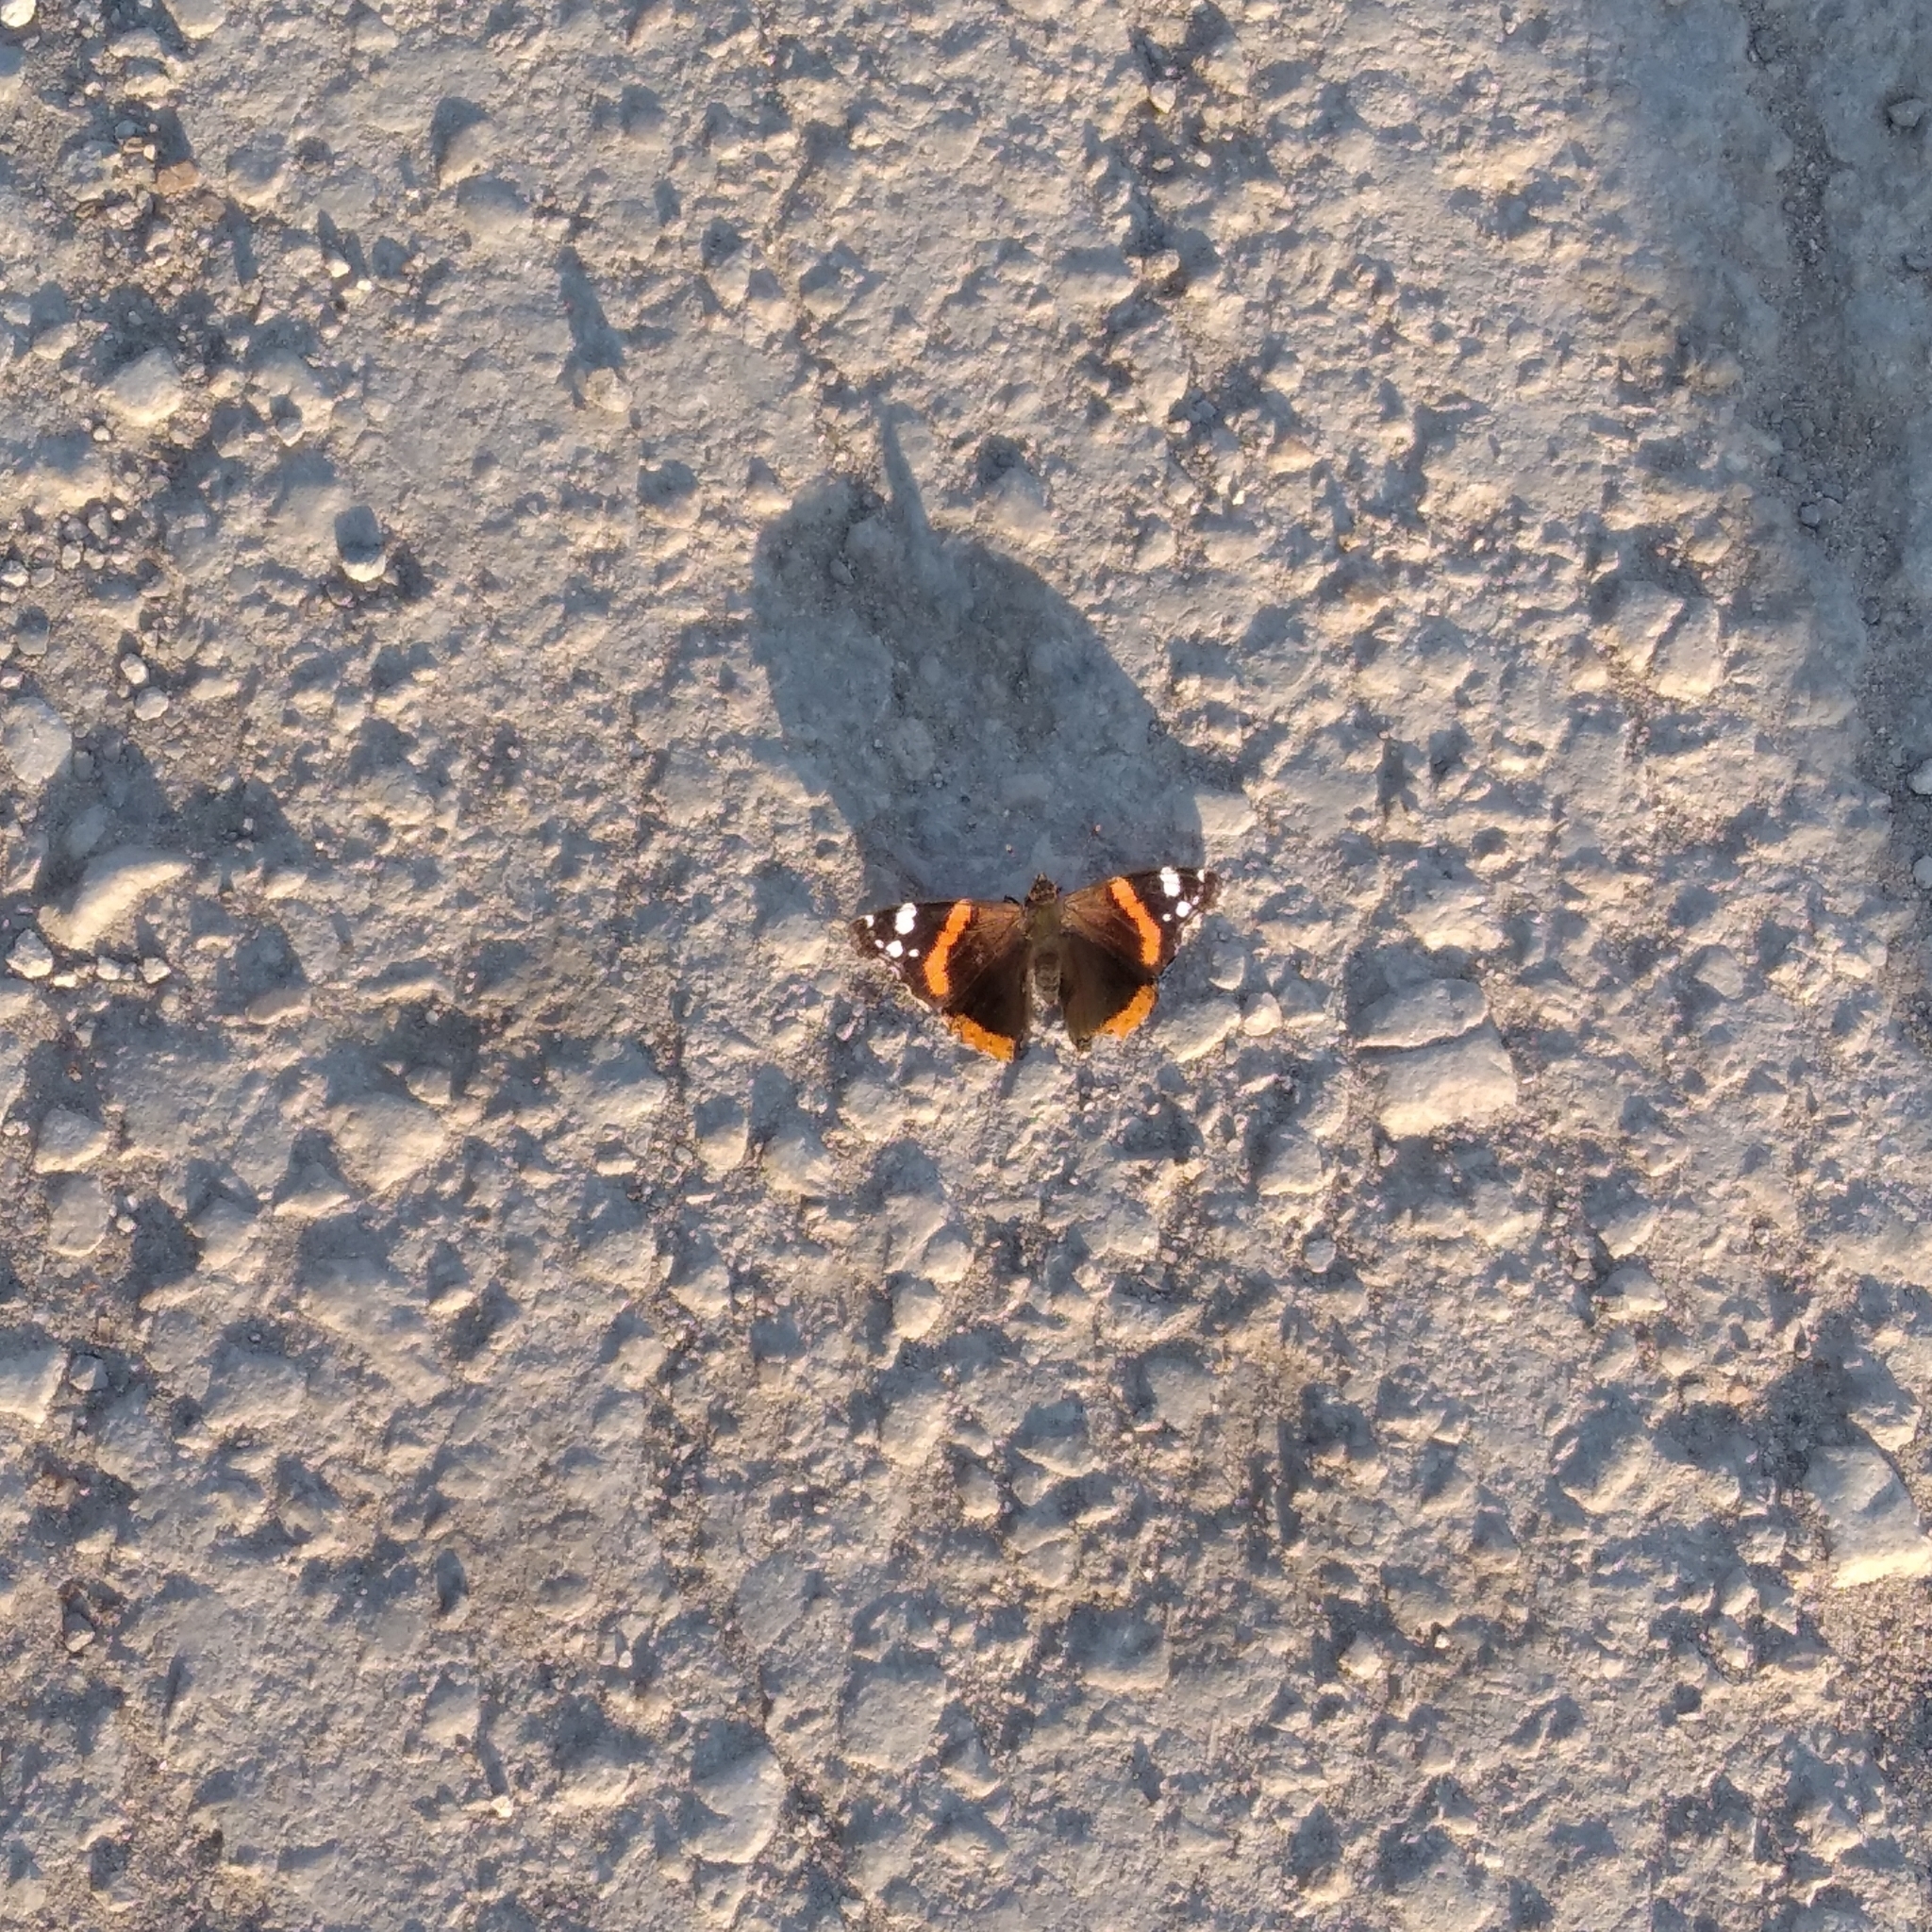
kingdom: Animalia
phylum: Arthropoda
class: Insecta
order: Lepidoptera
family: Nymphalidae
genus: Vanessa
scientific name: Vanessa atalanta
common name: Red admiral
